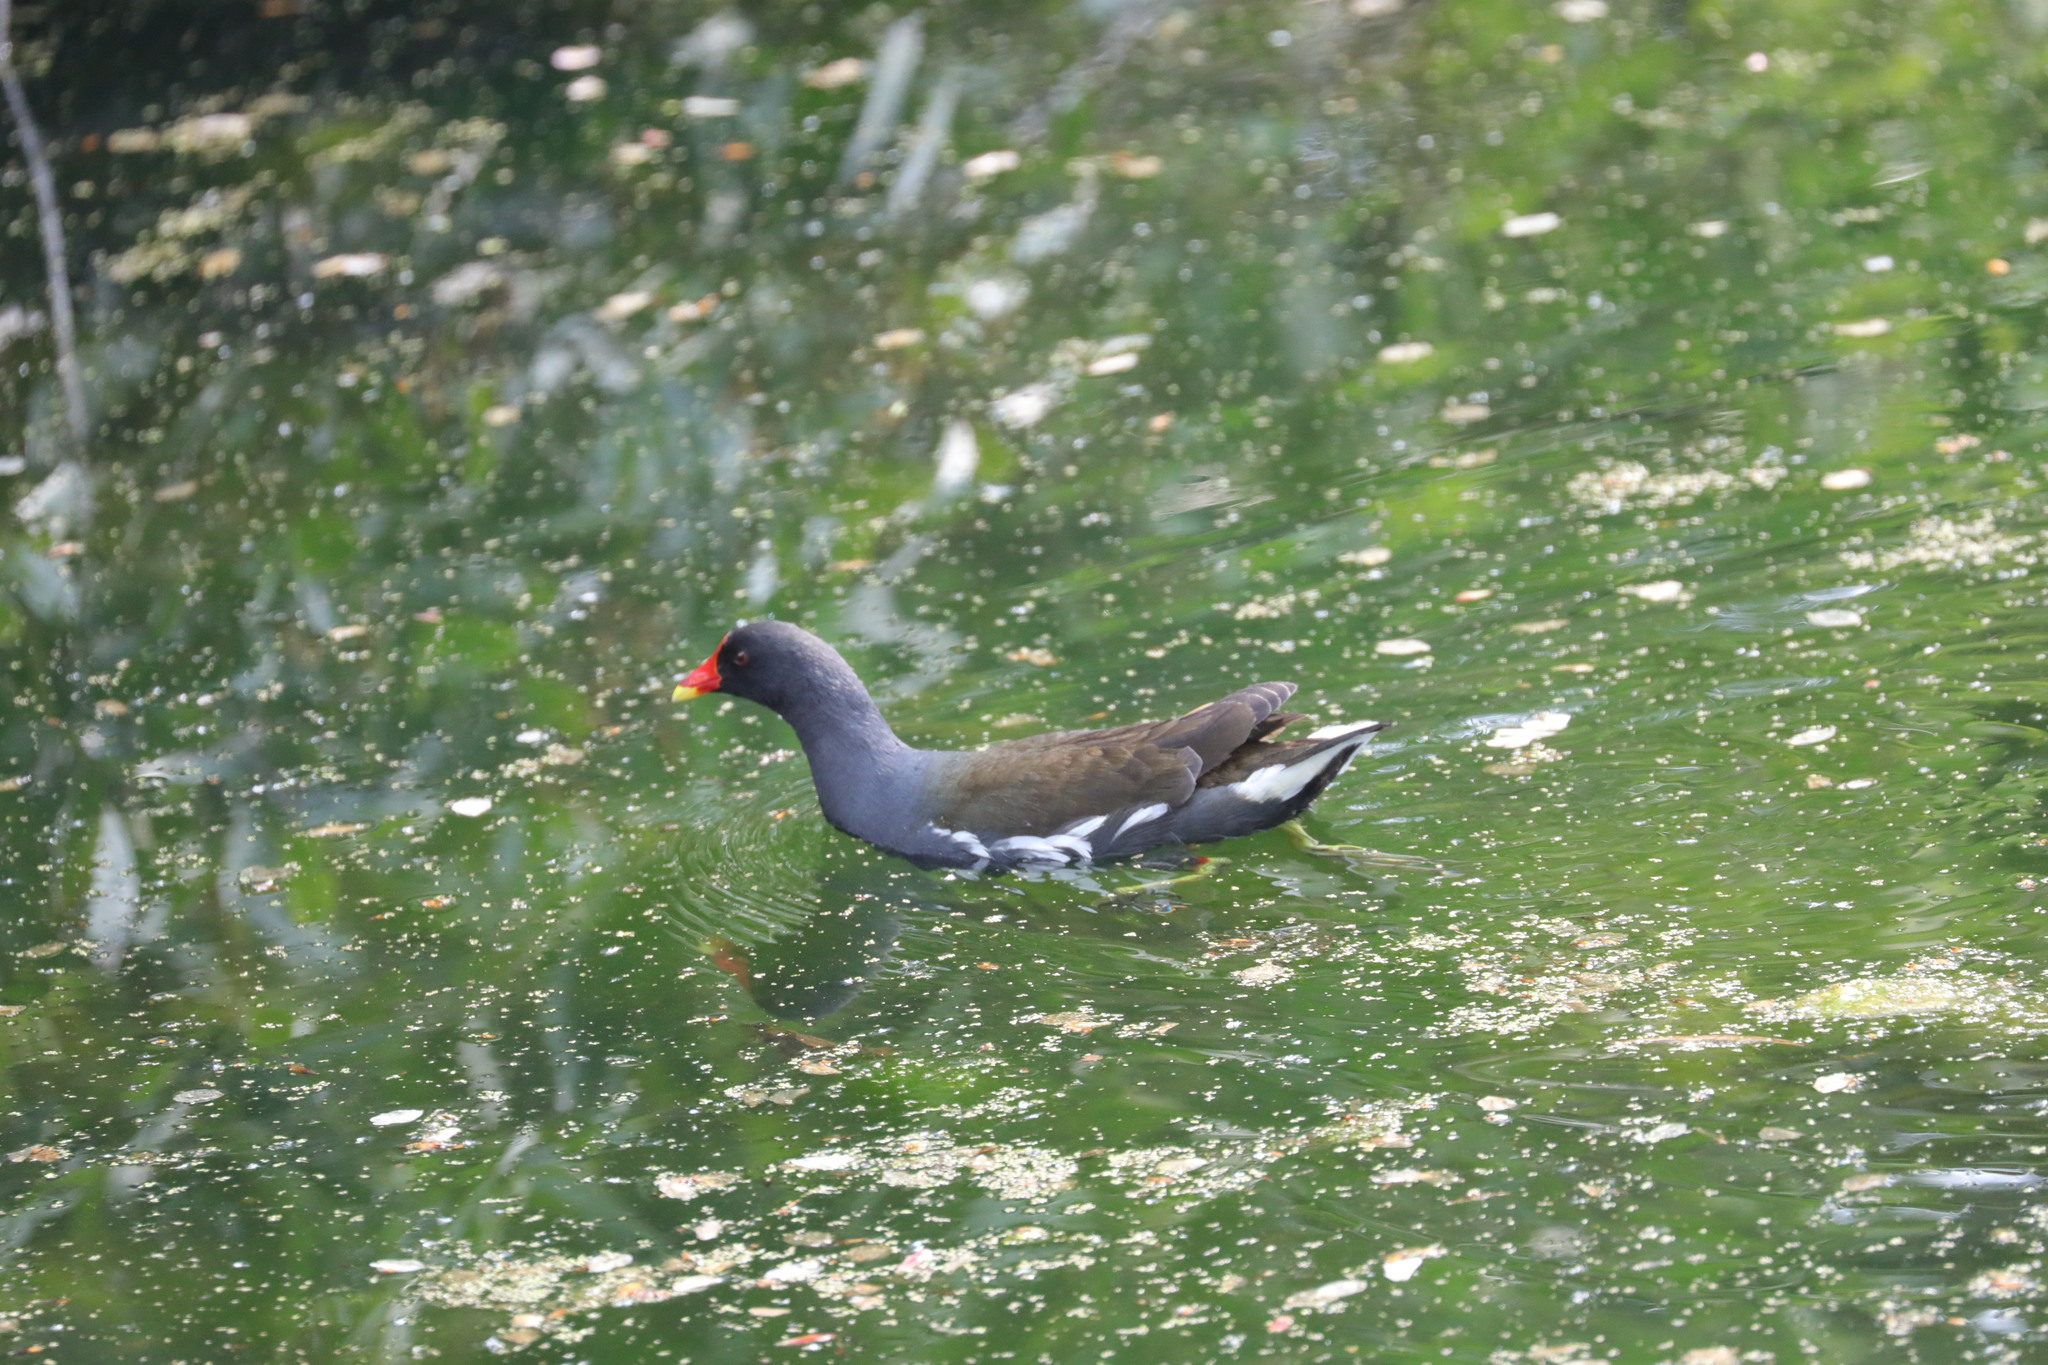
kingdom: Animalia
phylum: Chordata
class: Aves
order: Gruiformes
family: Rallidae
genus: Gallinula
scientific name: Gallinula chloropus
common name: Common moorhen
